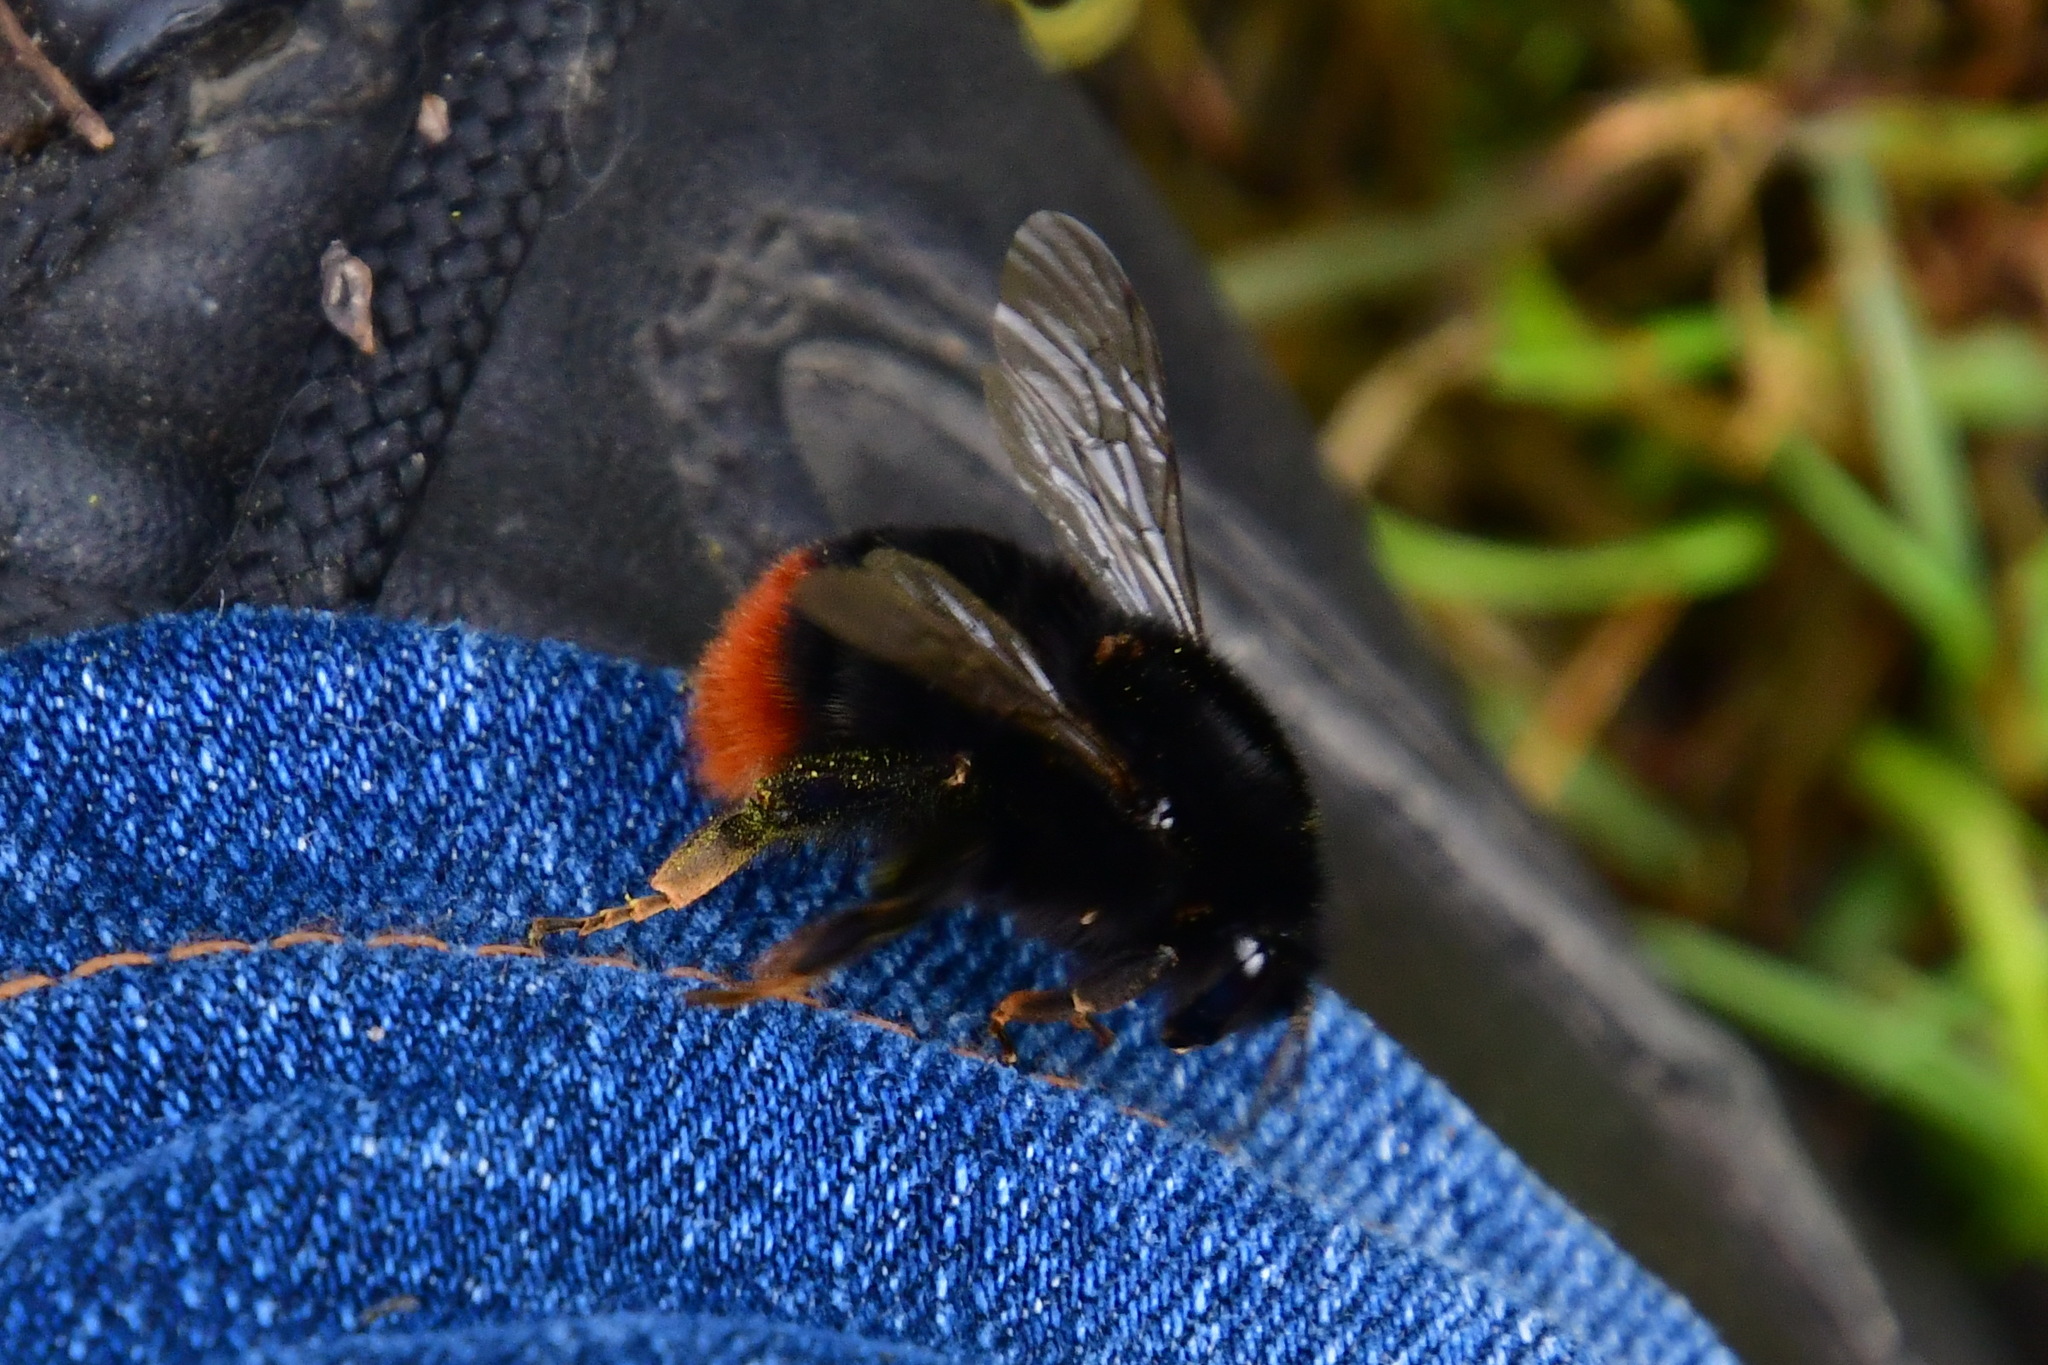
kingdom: Animalia
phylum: Arthropoda
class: Insecta
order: Hymenoptera
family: Apidae
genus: Bombus
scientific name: Bombus lapidarius
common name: Large red-tailed humble-bee
